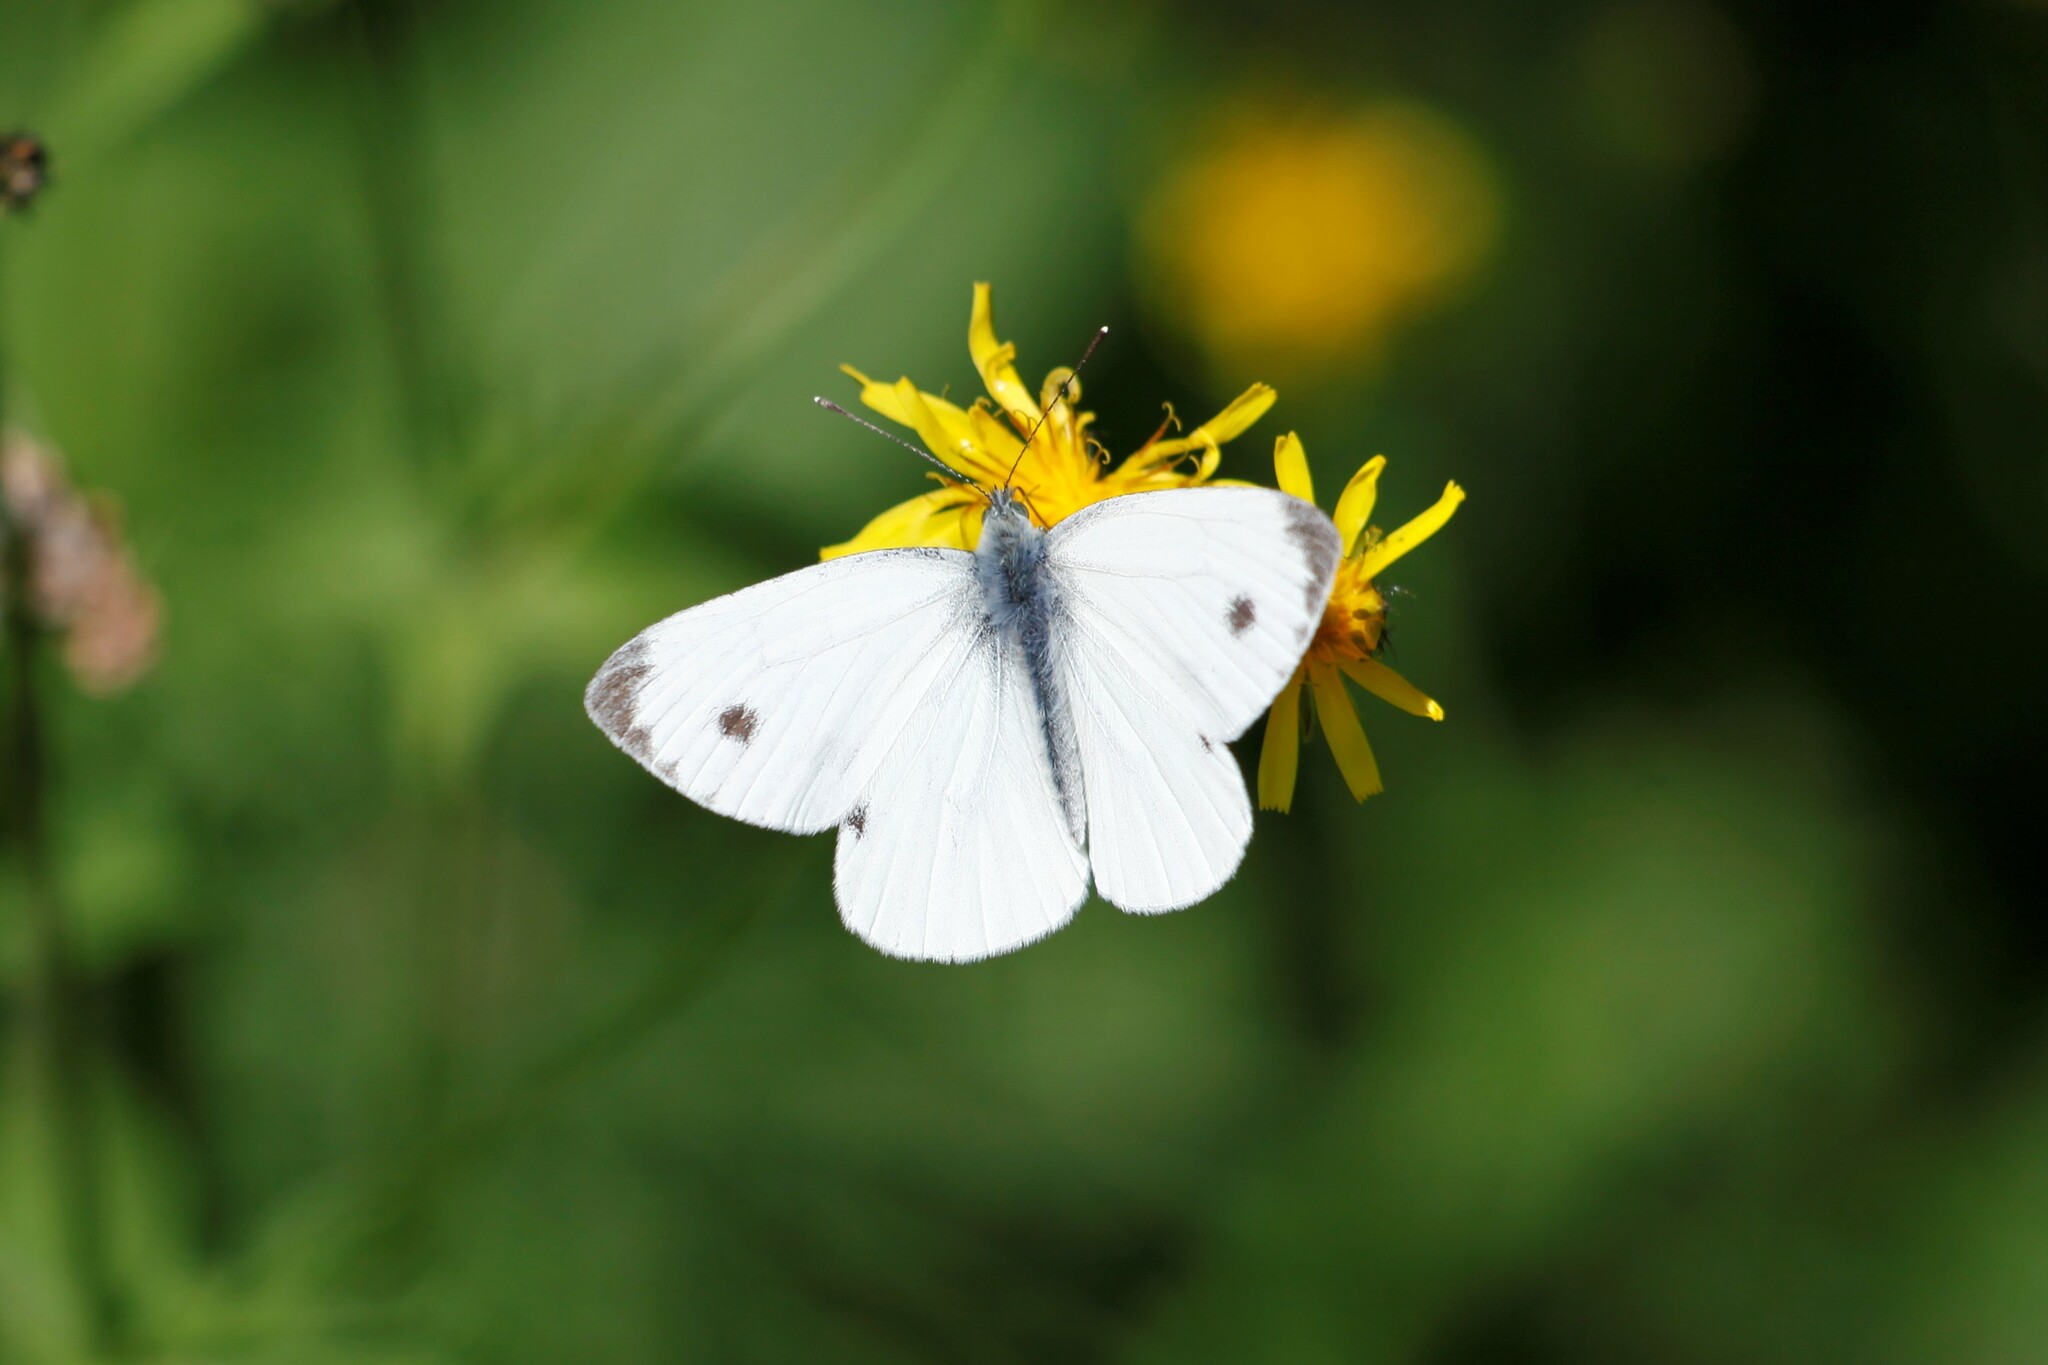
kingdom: Animalia
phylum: Arthropoda
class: Insecta
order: Lepidoptera
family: Pieridae
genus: Pieris
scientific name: Pieris napi
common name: Green-veined white
